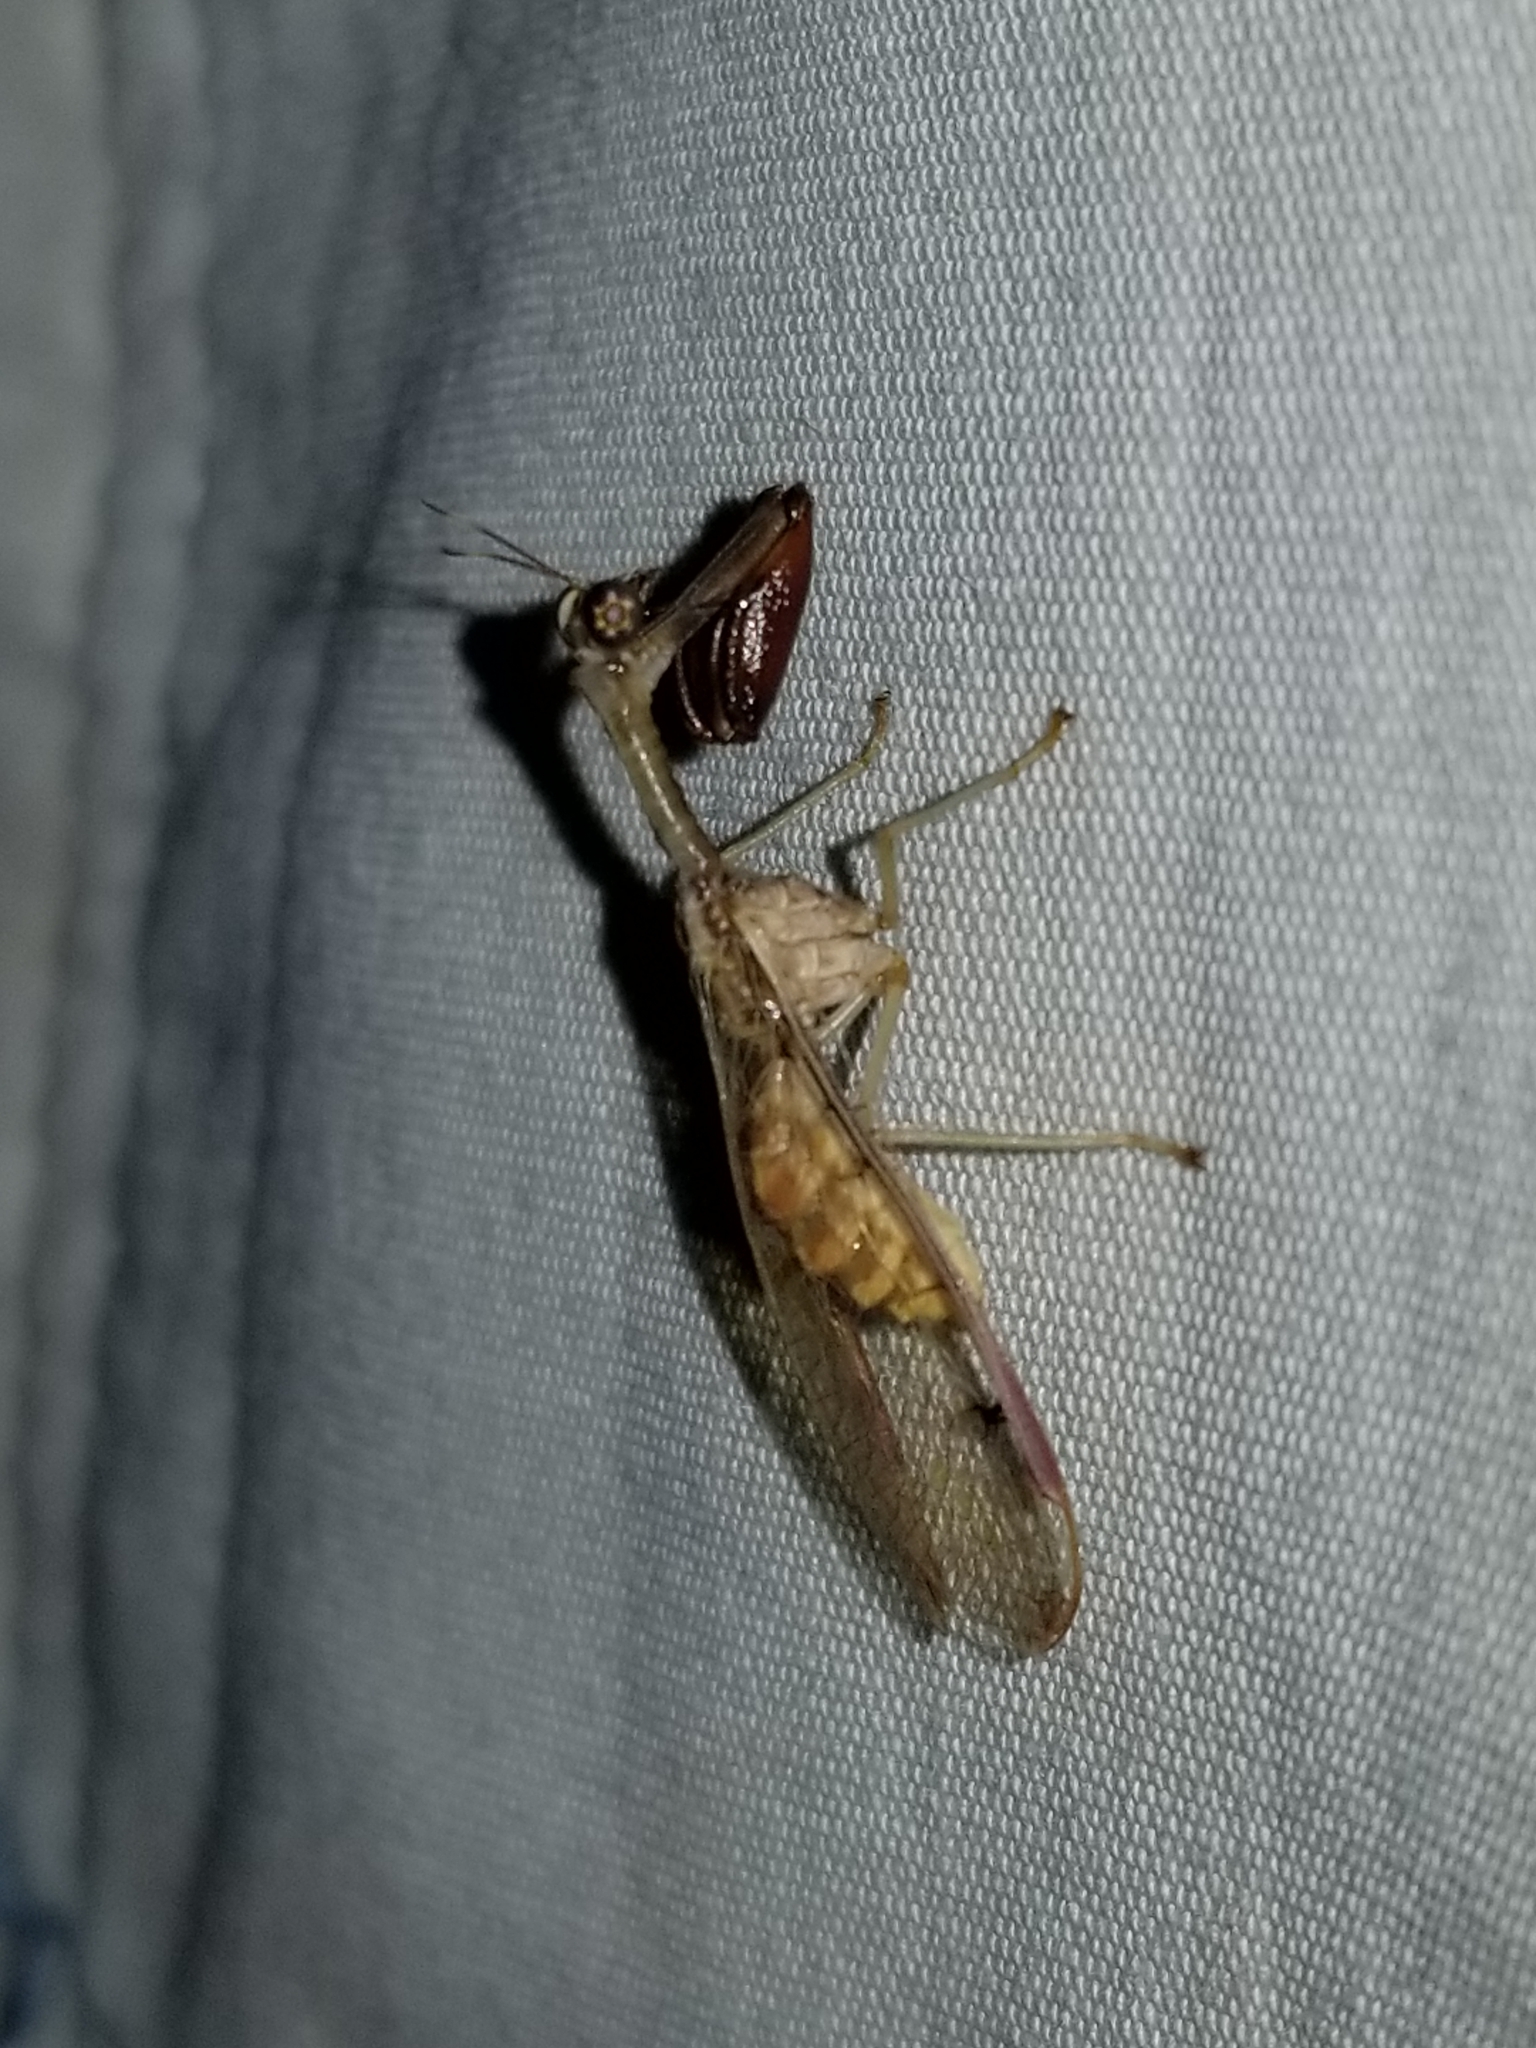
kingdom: Animalia
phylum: Arthropoda
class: Insecta
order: Neuroptera
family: Mantispidae
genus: Dicromantispa
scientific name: Dicromantispa interrupta
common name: Four-spotted mantidfly
